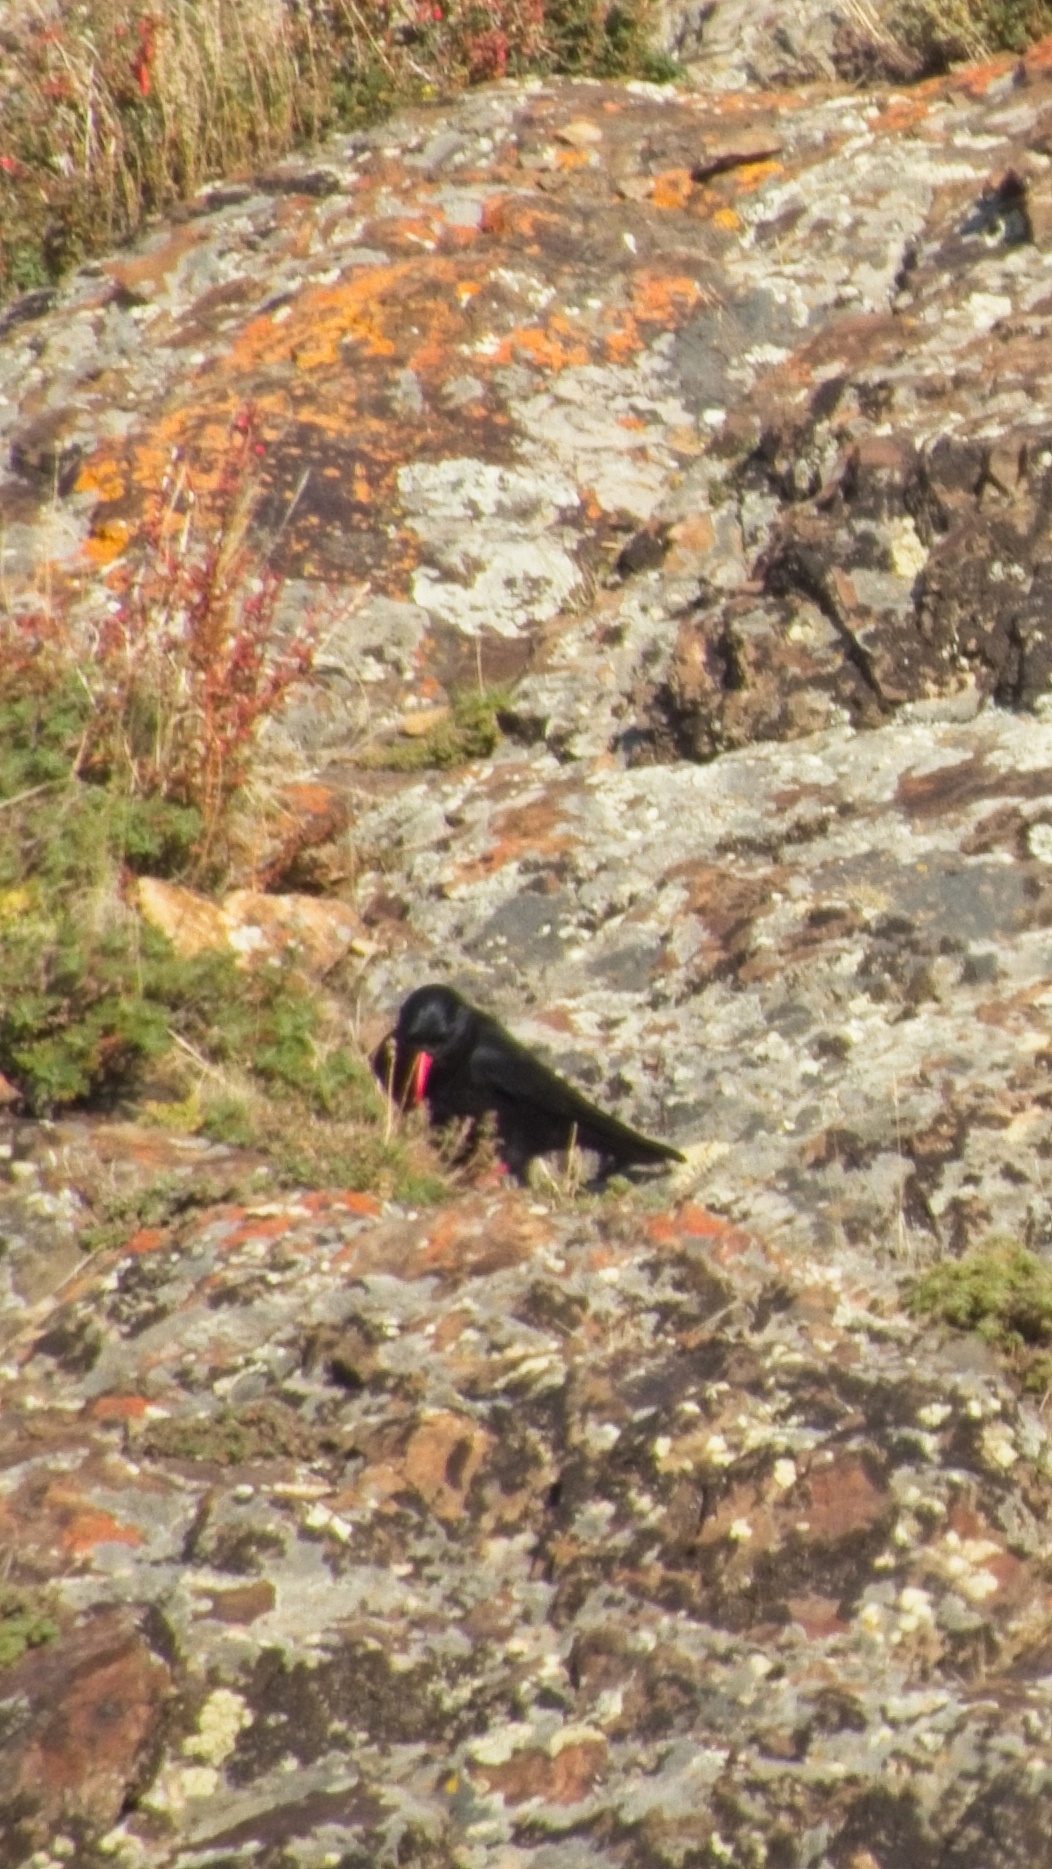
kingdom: Animalia
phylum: Chordata
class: Aves
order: Passeriformes
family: Corvidae
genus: Pyrrhocorax
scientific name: Pyrrhocorax pyrrhocorax
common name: Red-billed chough
